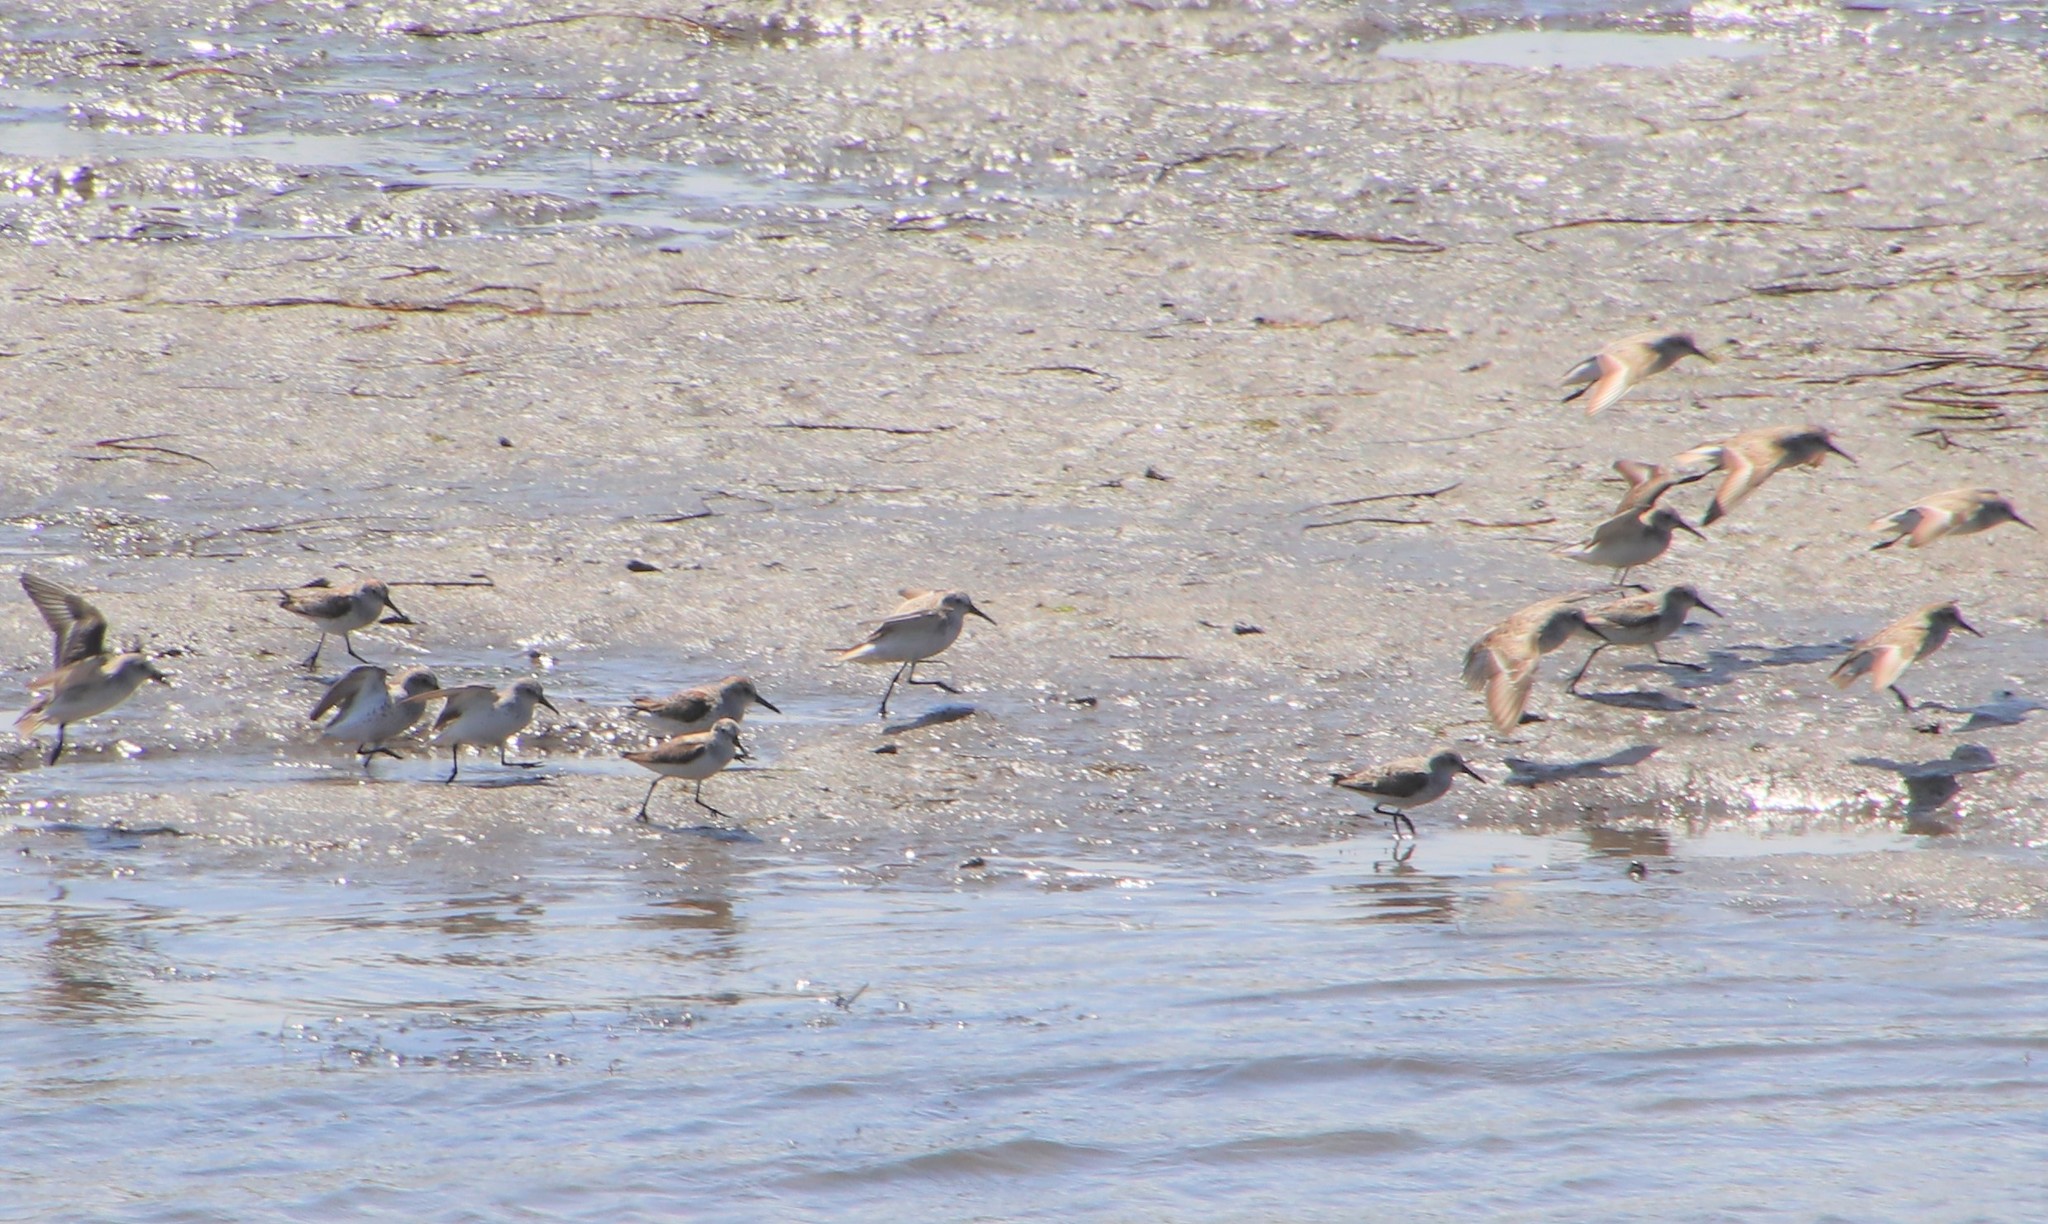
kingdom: Animalia
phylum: Chordata
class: Aves
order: Charadriiformes
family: Scolopacidae
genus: Calidris
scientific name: Calidris mauri
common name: Western sandpiper
